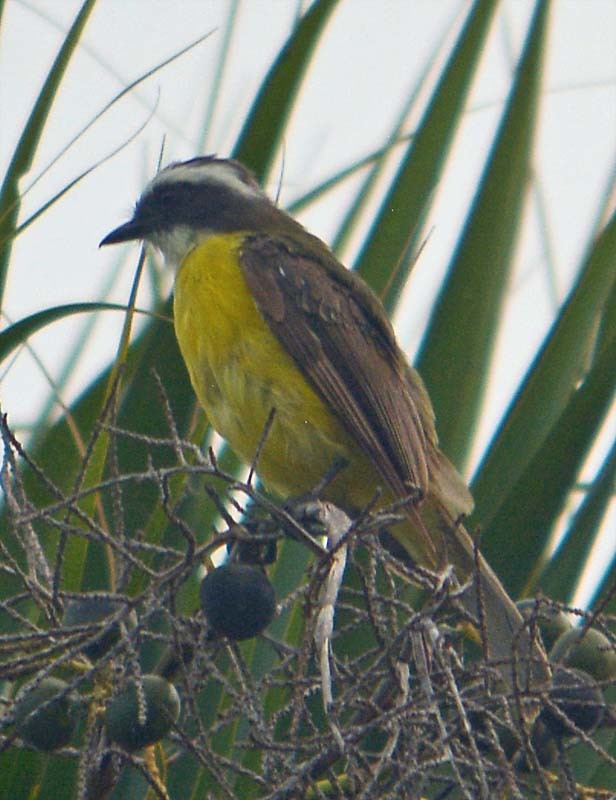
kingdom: Animalia
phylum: Chordata
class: Aves
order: Passeriformes
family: Tyrannidae
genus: Myiozetetes
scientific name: Myiozetetes similis
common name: Social flycatcher
